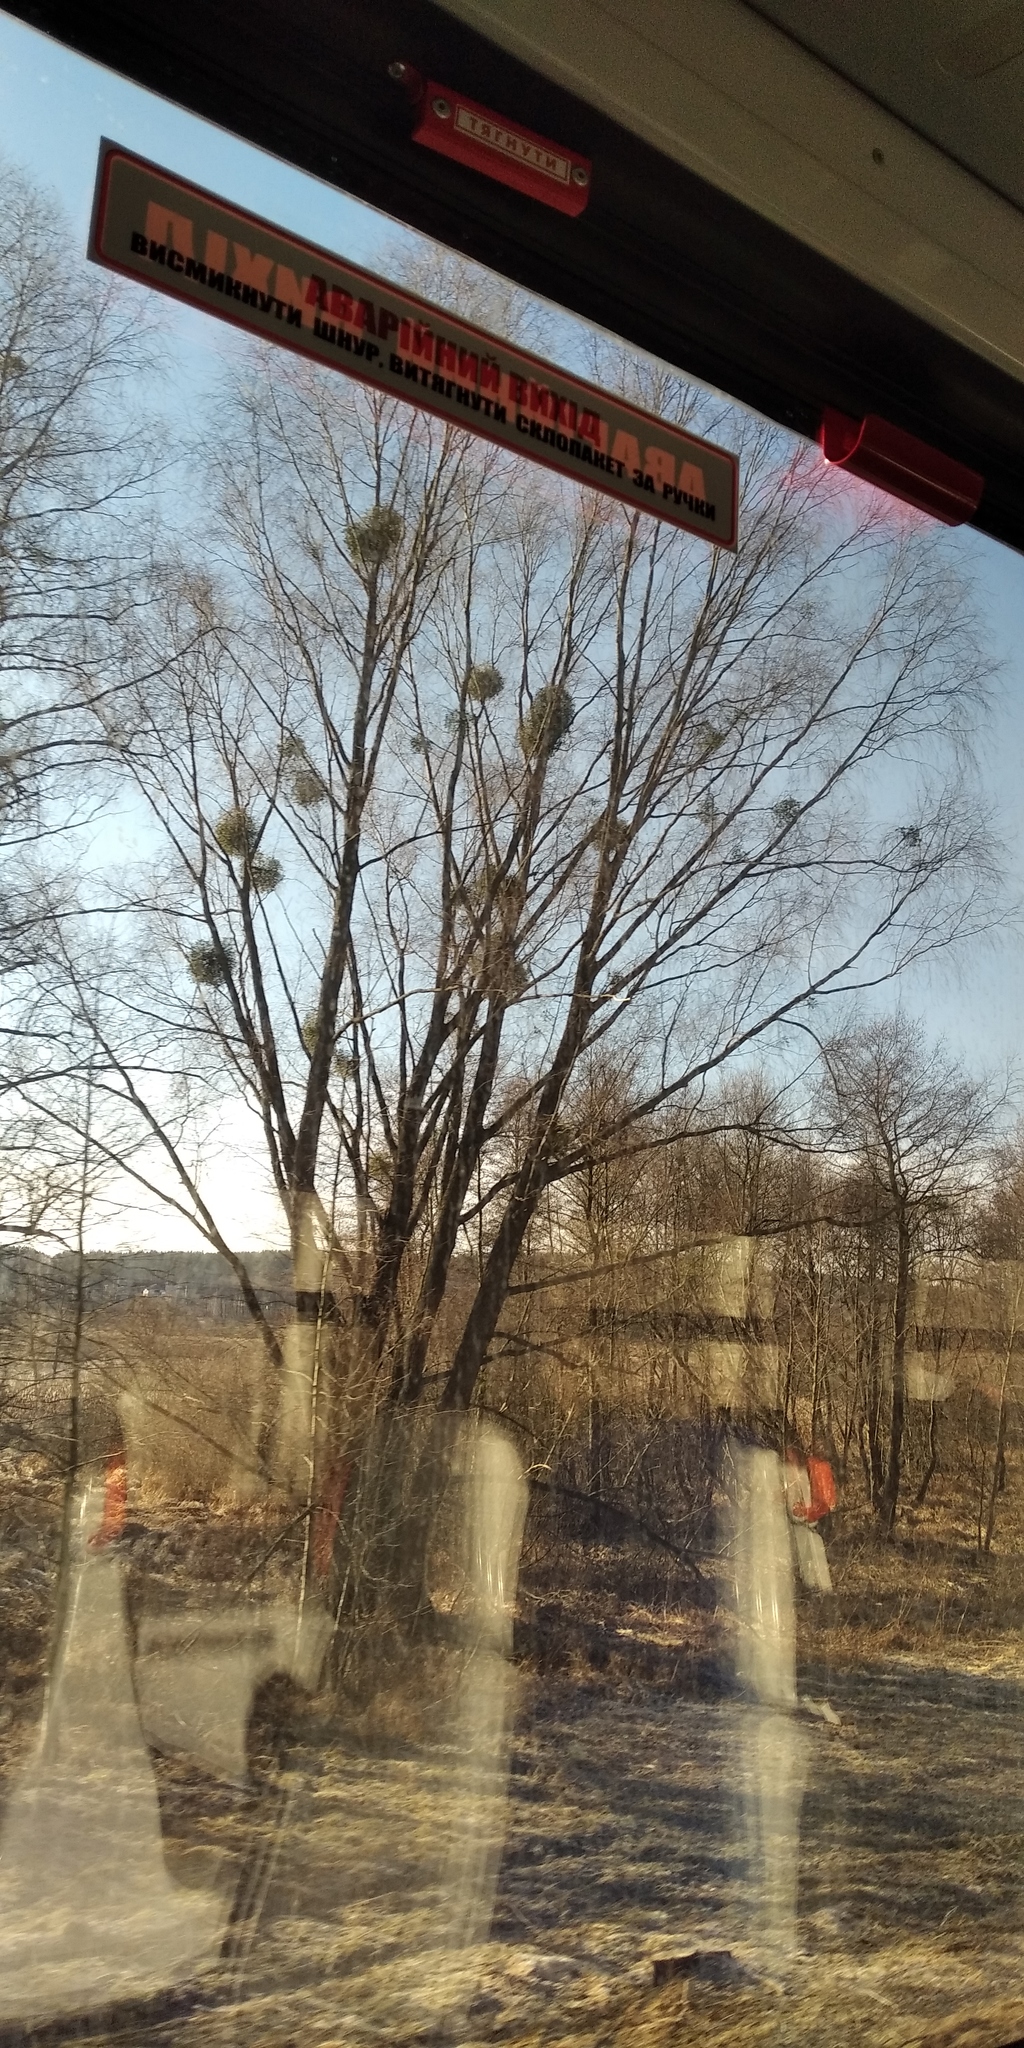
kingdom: Plantae
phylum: Tracheophyta
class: Magnoliopsida
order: Santalales
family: Viscaceae
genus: Viscum
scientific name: Viscum album
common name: Mistletoe
